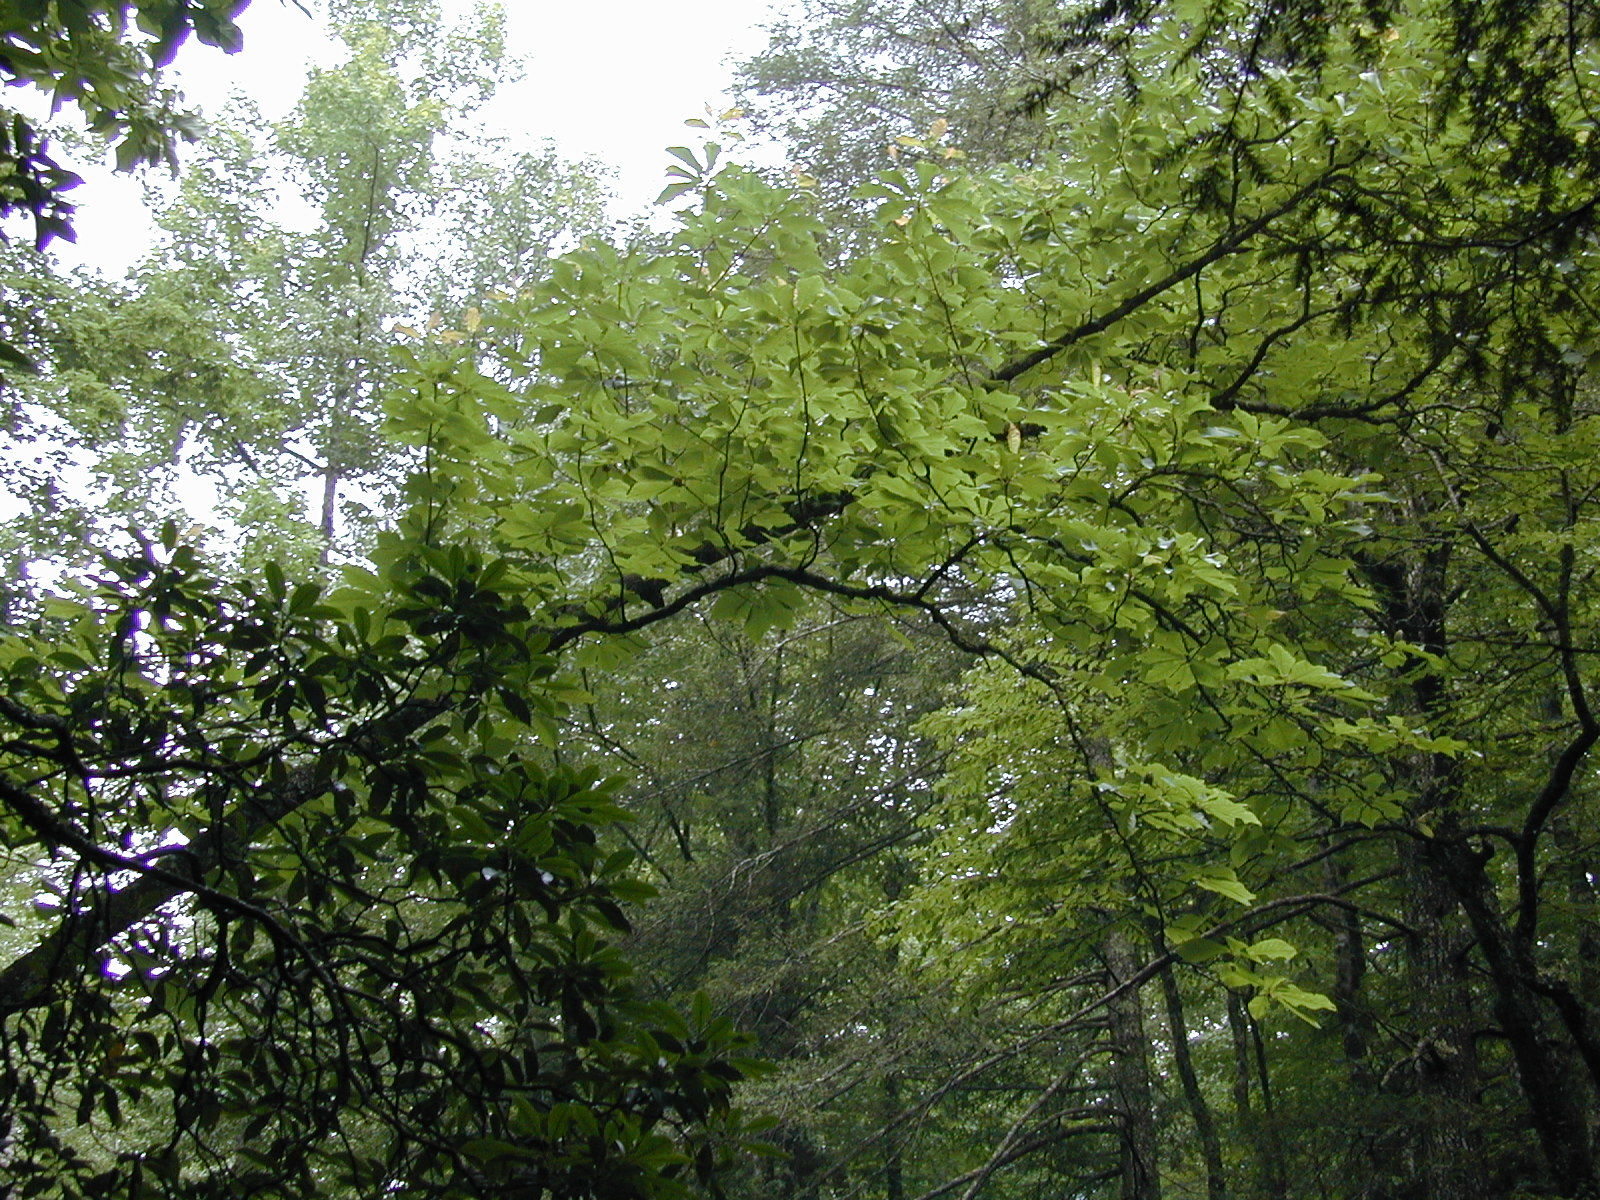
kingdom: Plantae
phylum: Tracheophyta
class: Magnoliopsida
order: Magnoliales
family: Magnoliaceae
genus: Magnolia
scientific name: Magnolia fraseri
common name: Fraser's magnolia
